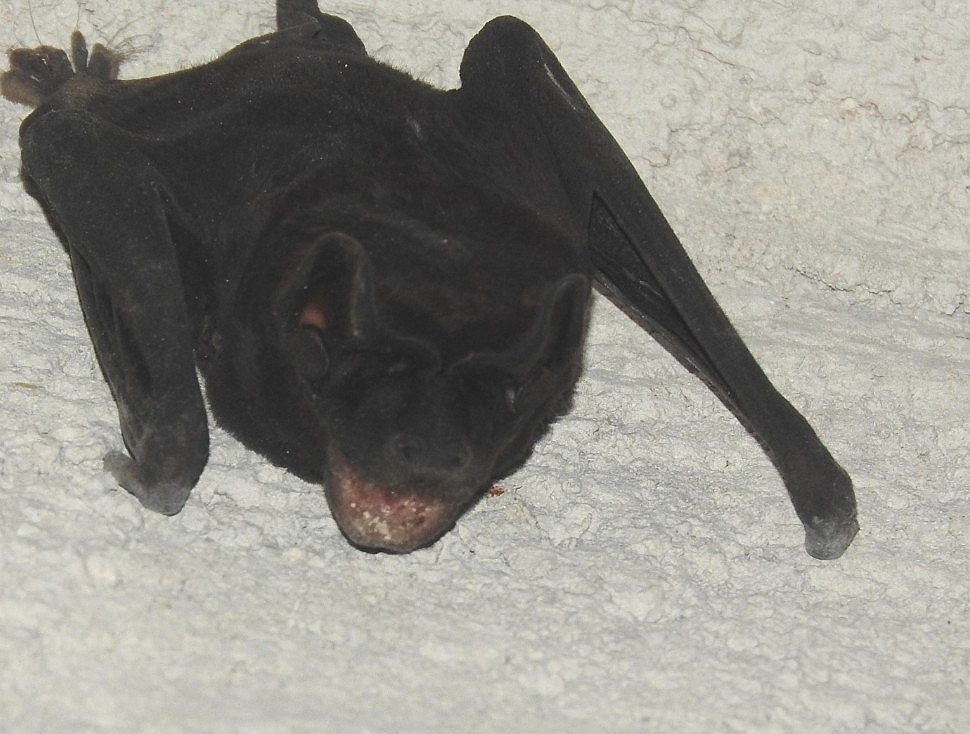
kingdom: Animalia
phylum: Chordata
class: Mammalia
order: Chiroptera
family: Molossidae
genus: Molossus
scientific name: Molossus rufus
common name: Black mastiff bat
